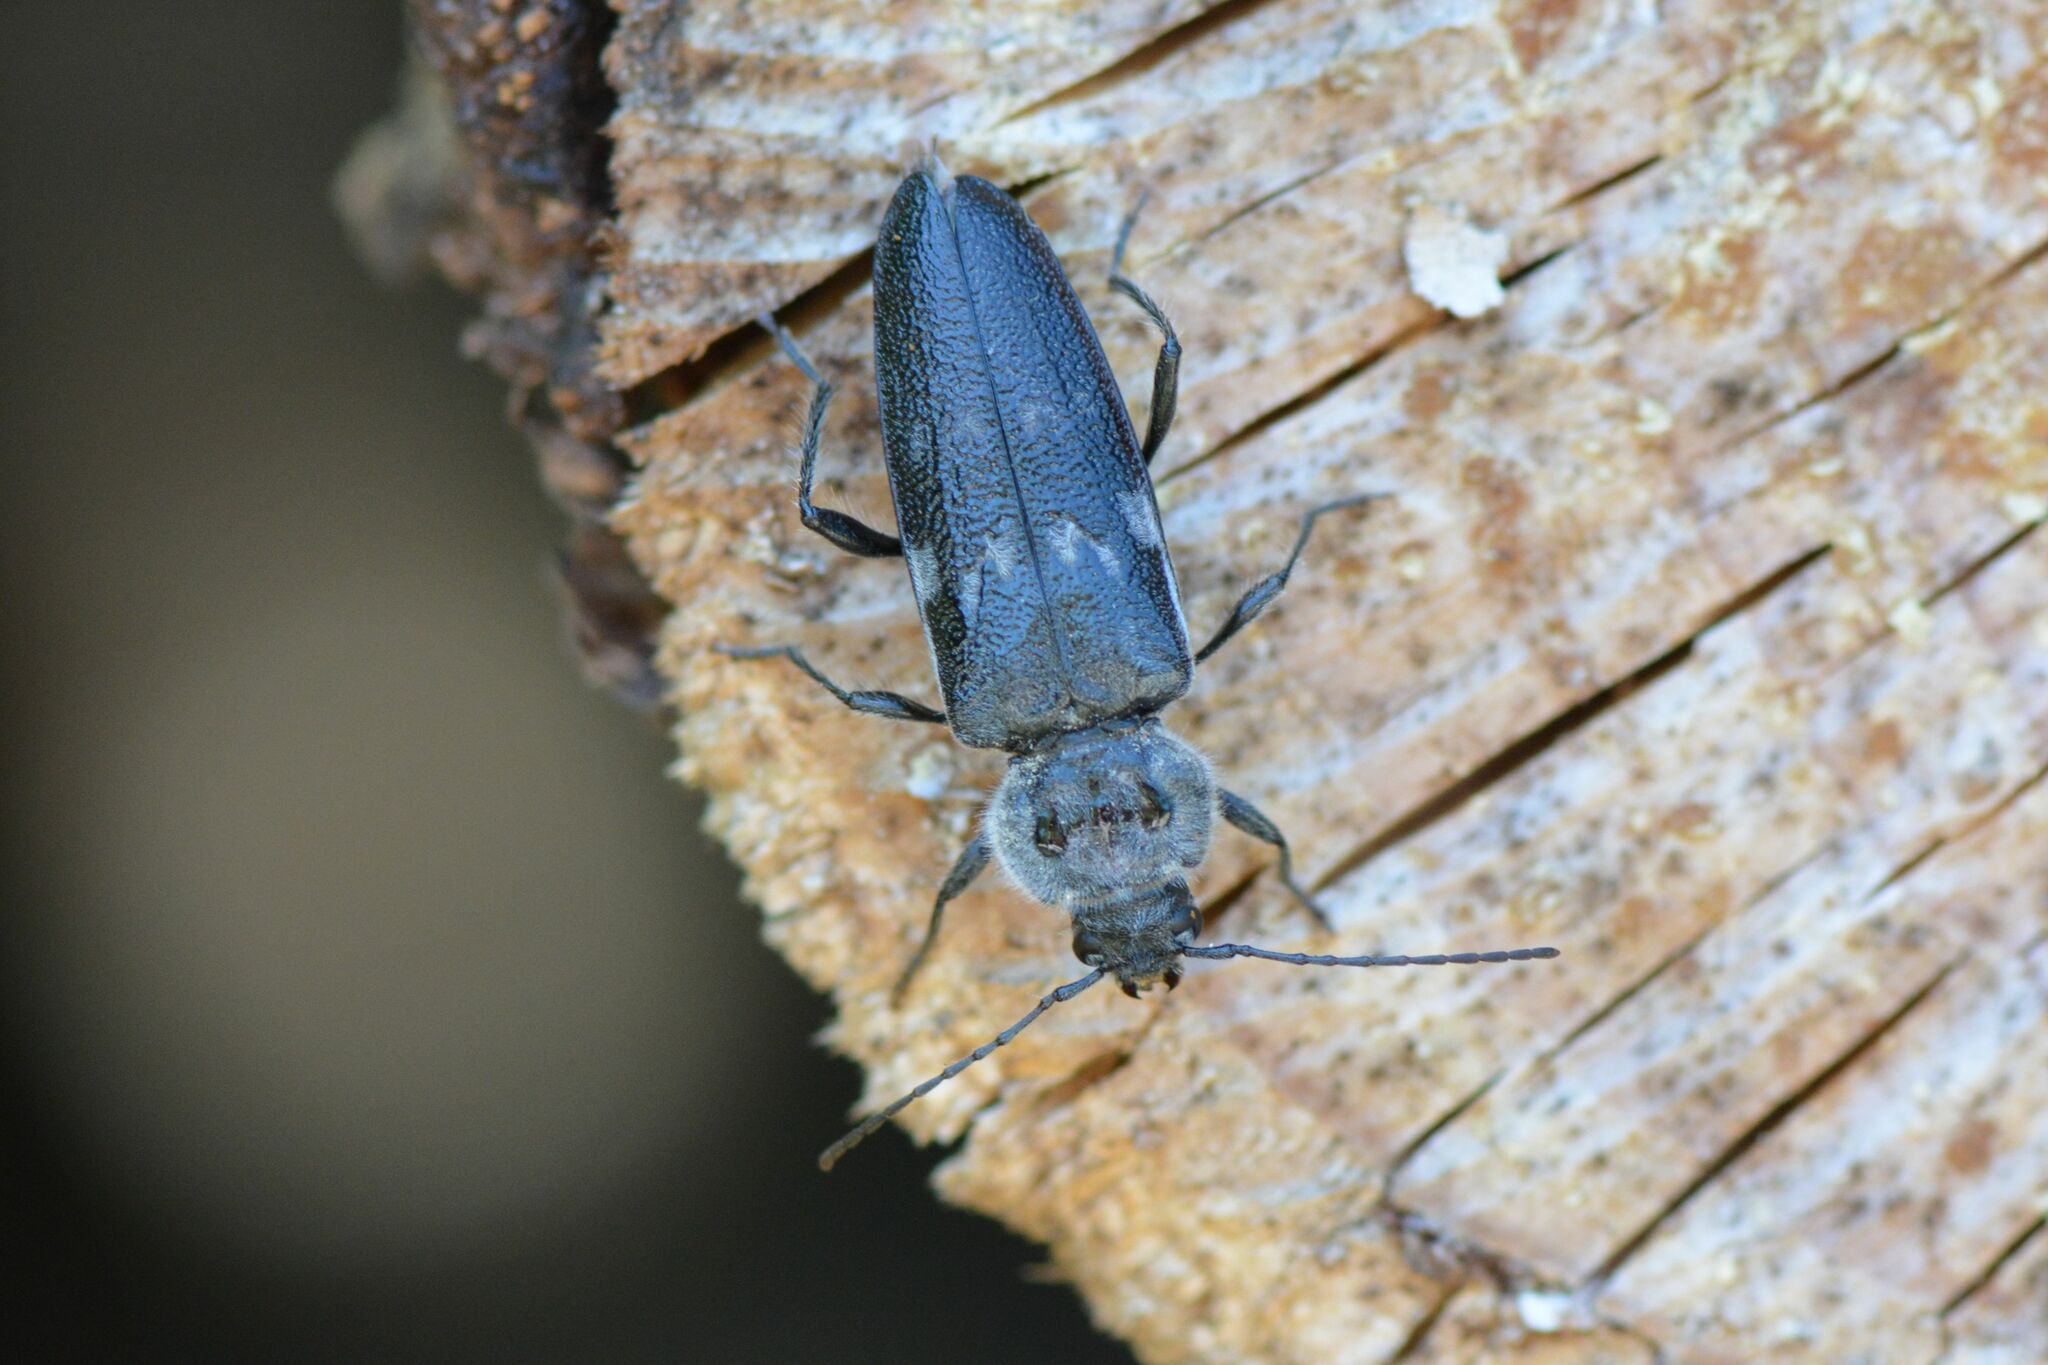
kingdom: Animalia
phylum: Arthropoda
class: Insecta
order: Coleoptera
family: Cerambycidae
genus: Hylotrupes
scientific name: Hylotrupes bajulus
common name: Old house borer
